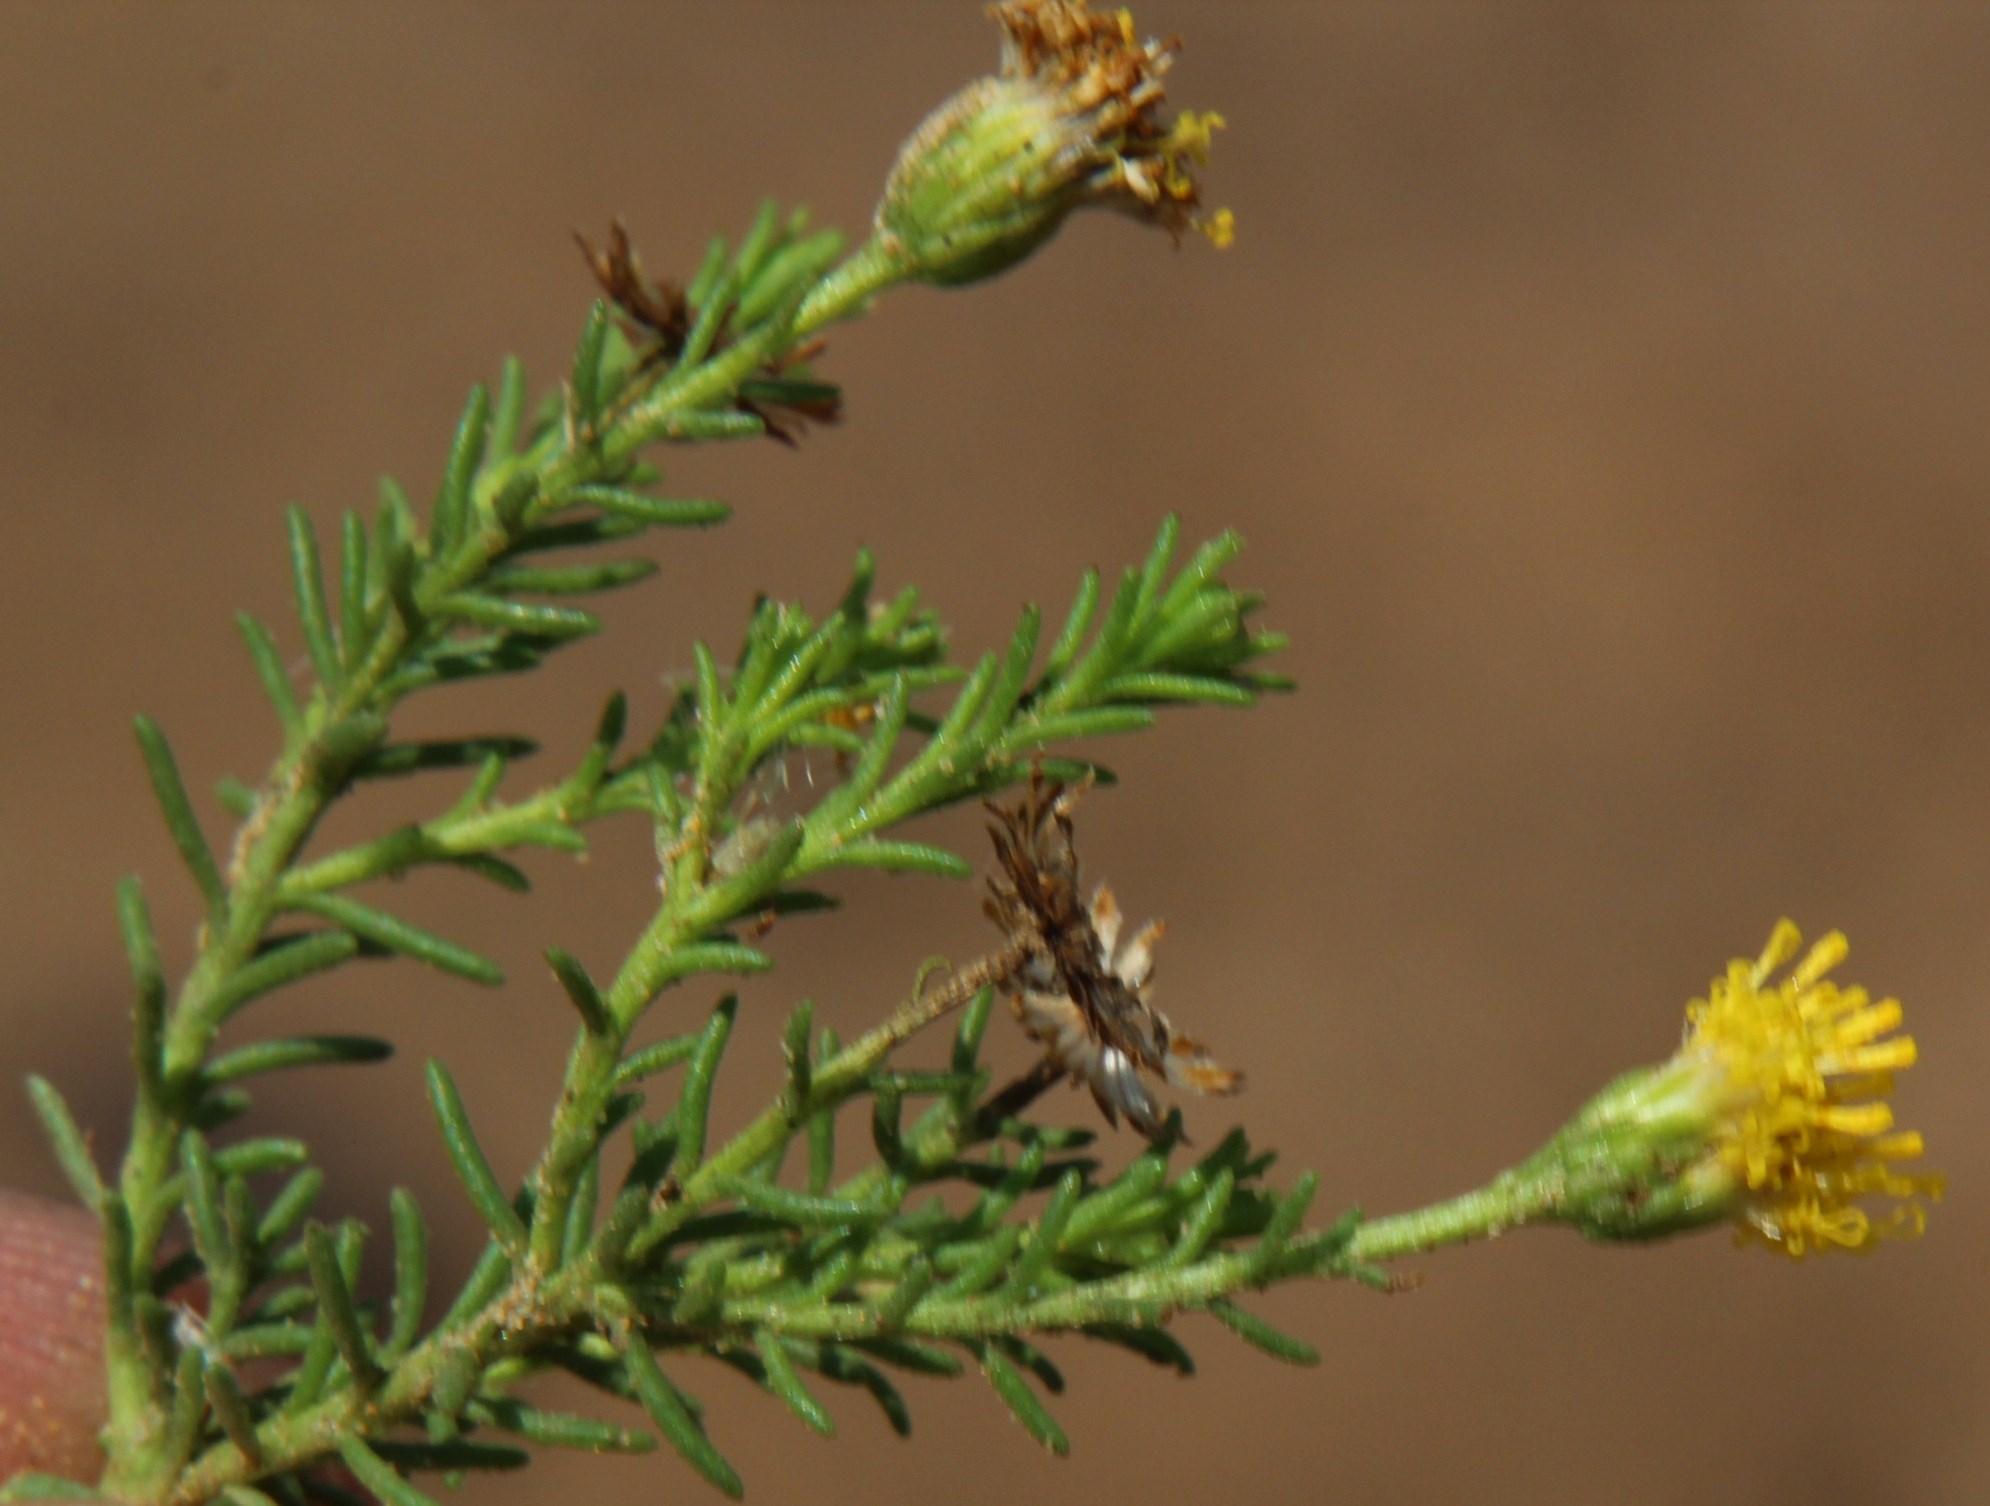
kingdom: Plantae
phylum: Tracheophyta
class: Magnoliopsida
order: Asterales
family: Asteraceae
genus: Chrysocoma
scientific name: Chrysocoma ciliata
